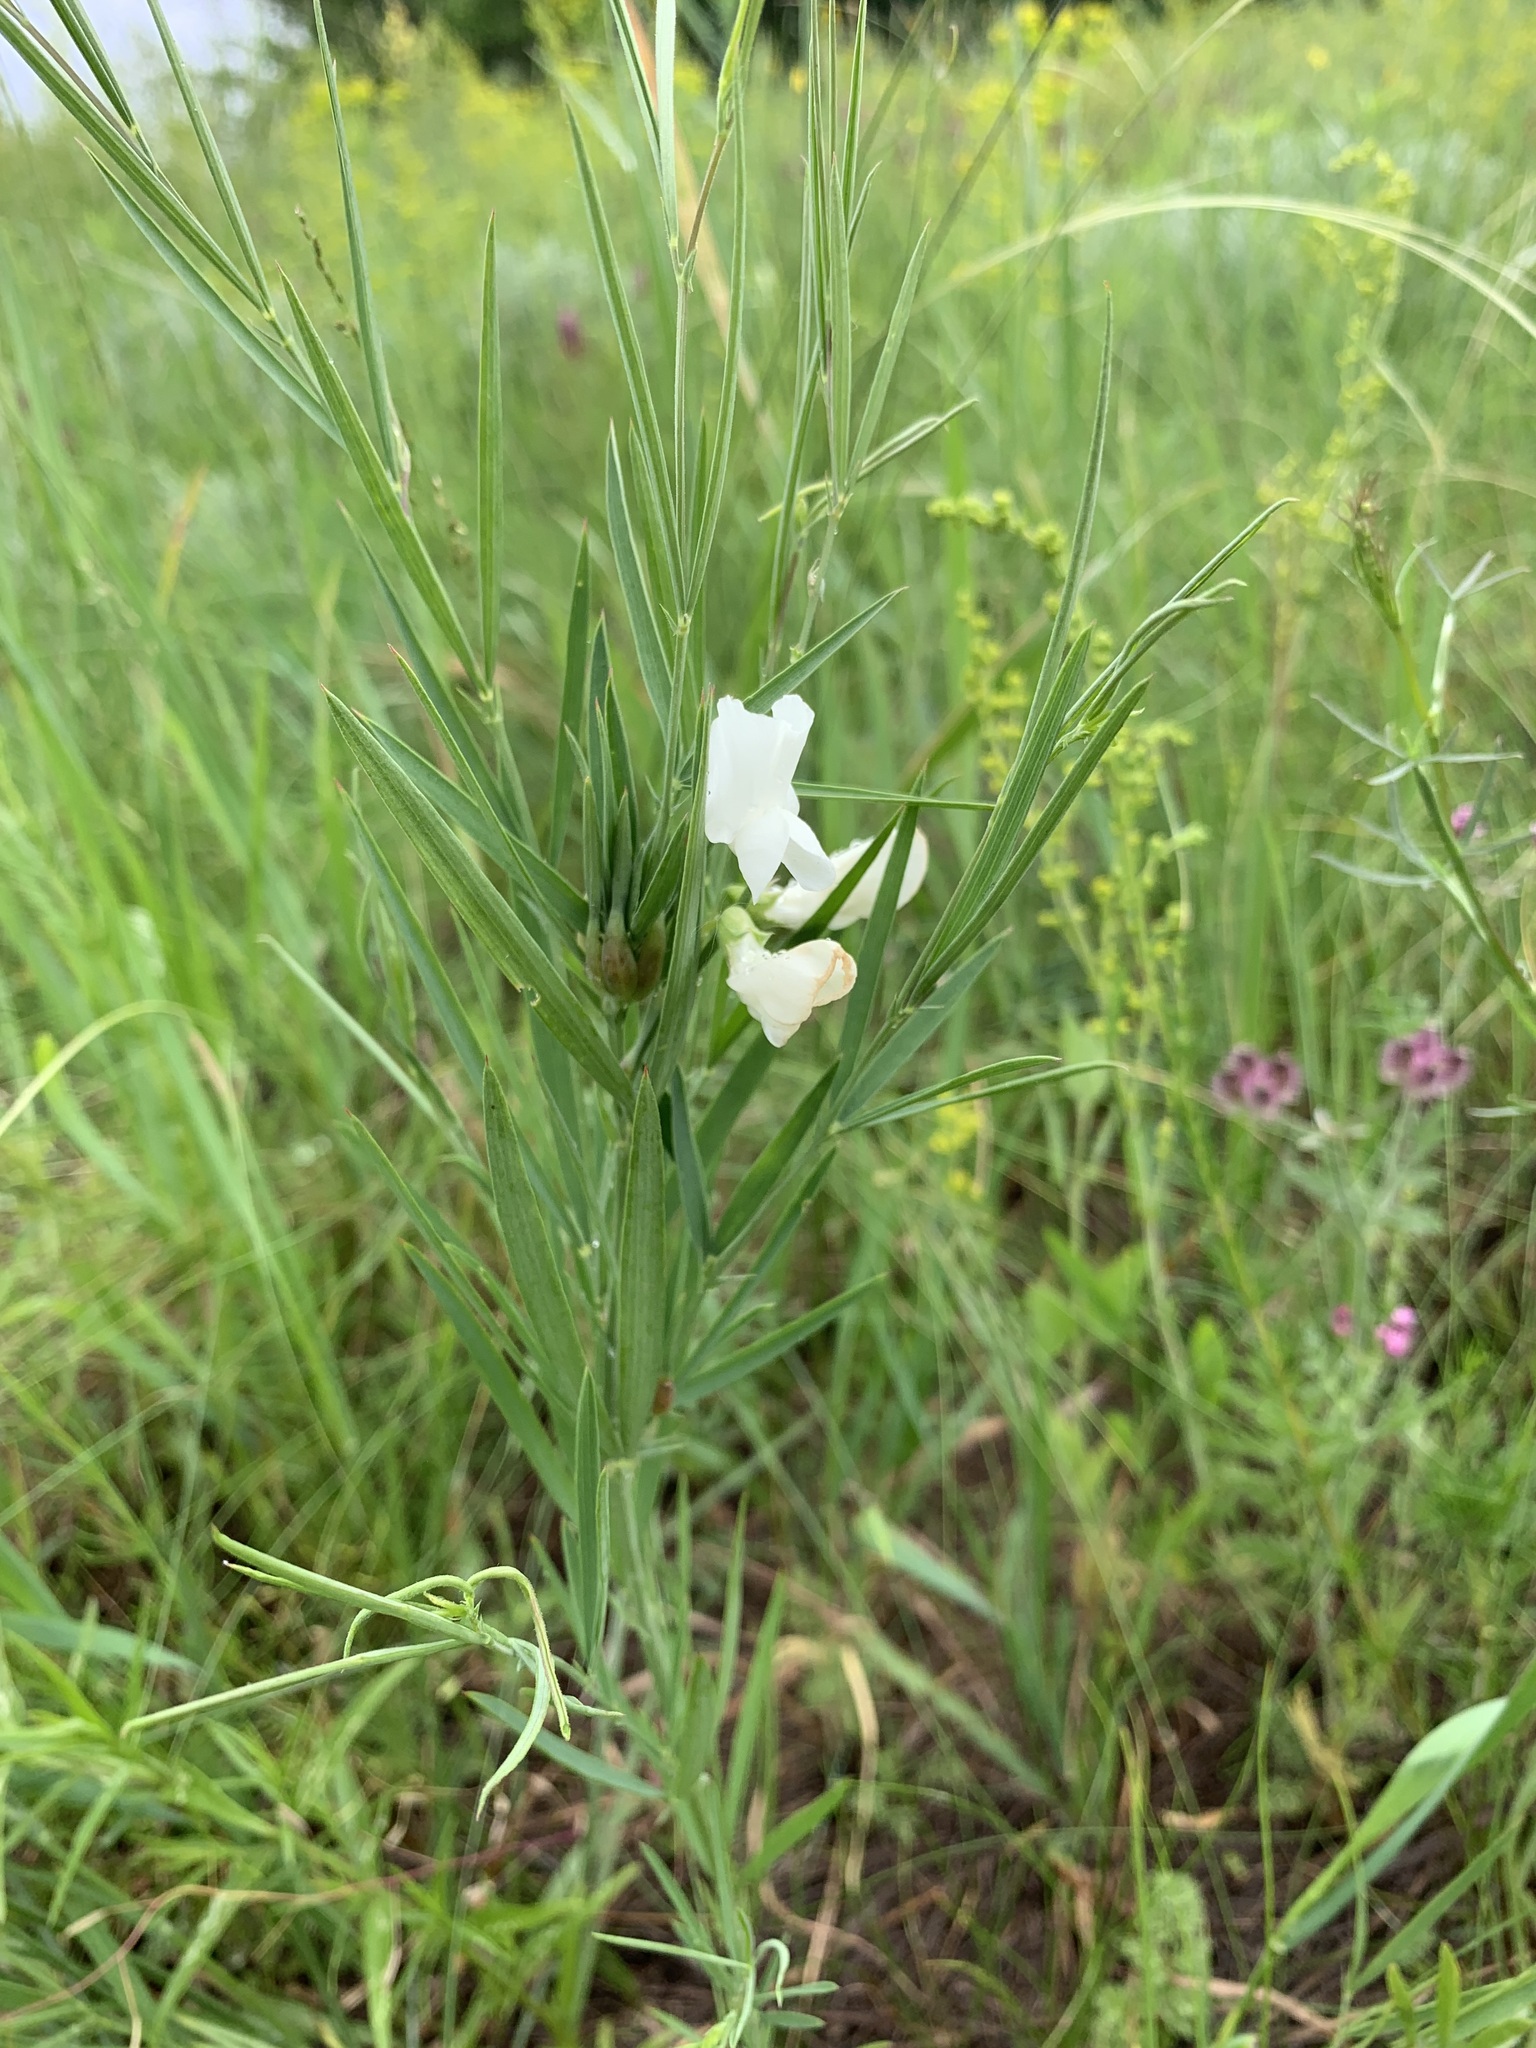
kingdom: Plantae
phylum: Tracheophyta
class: Magnoliopsida
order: Fabales
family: Fabaceae
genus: Lathyrus
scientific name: Lathyrus pallescens
